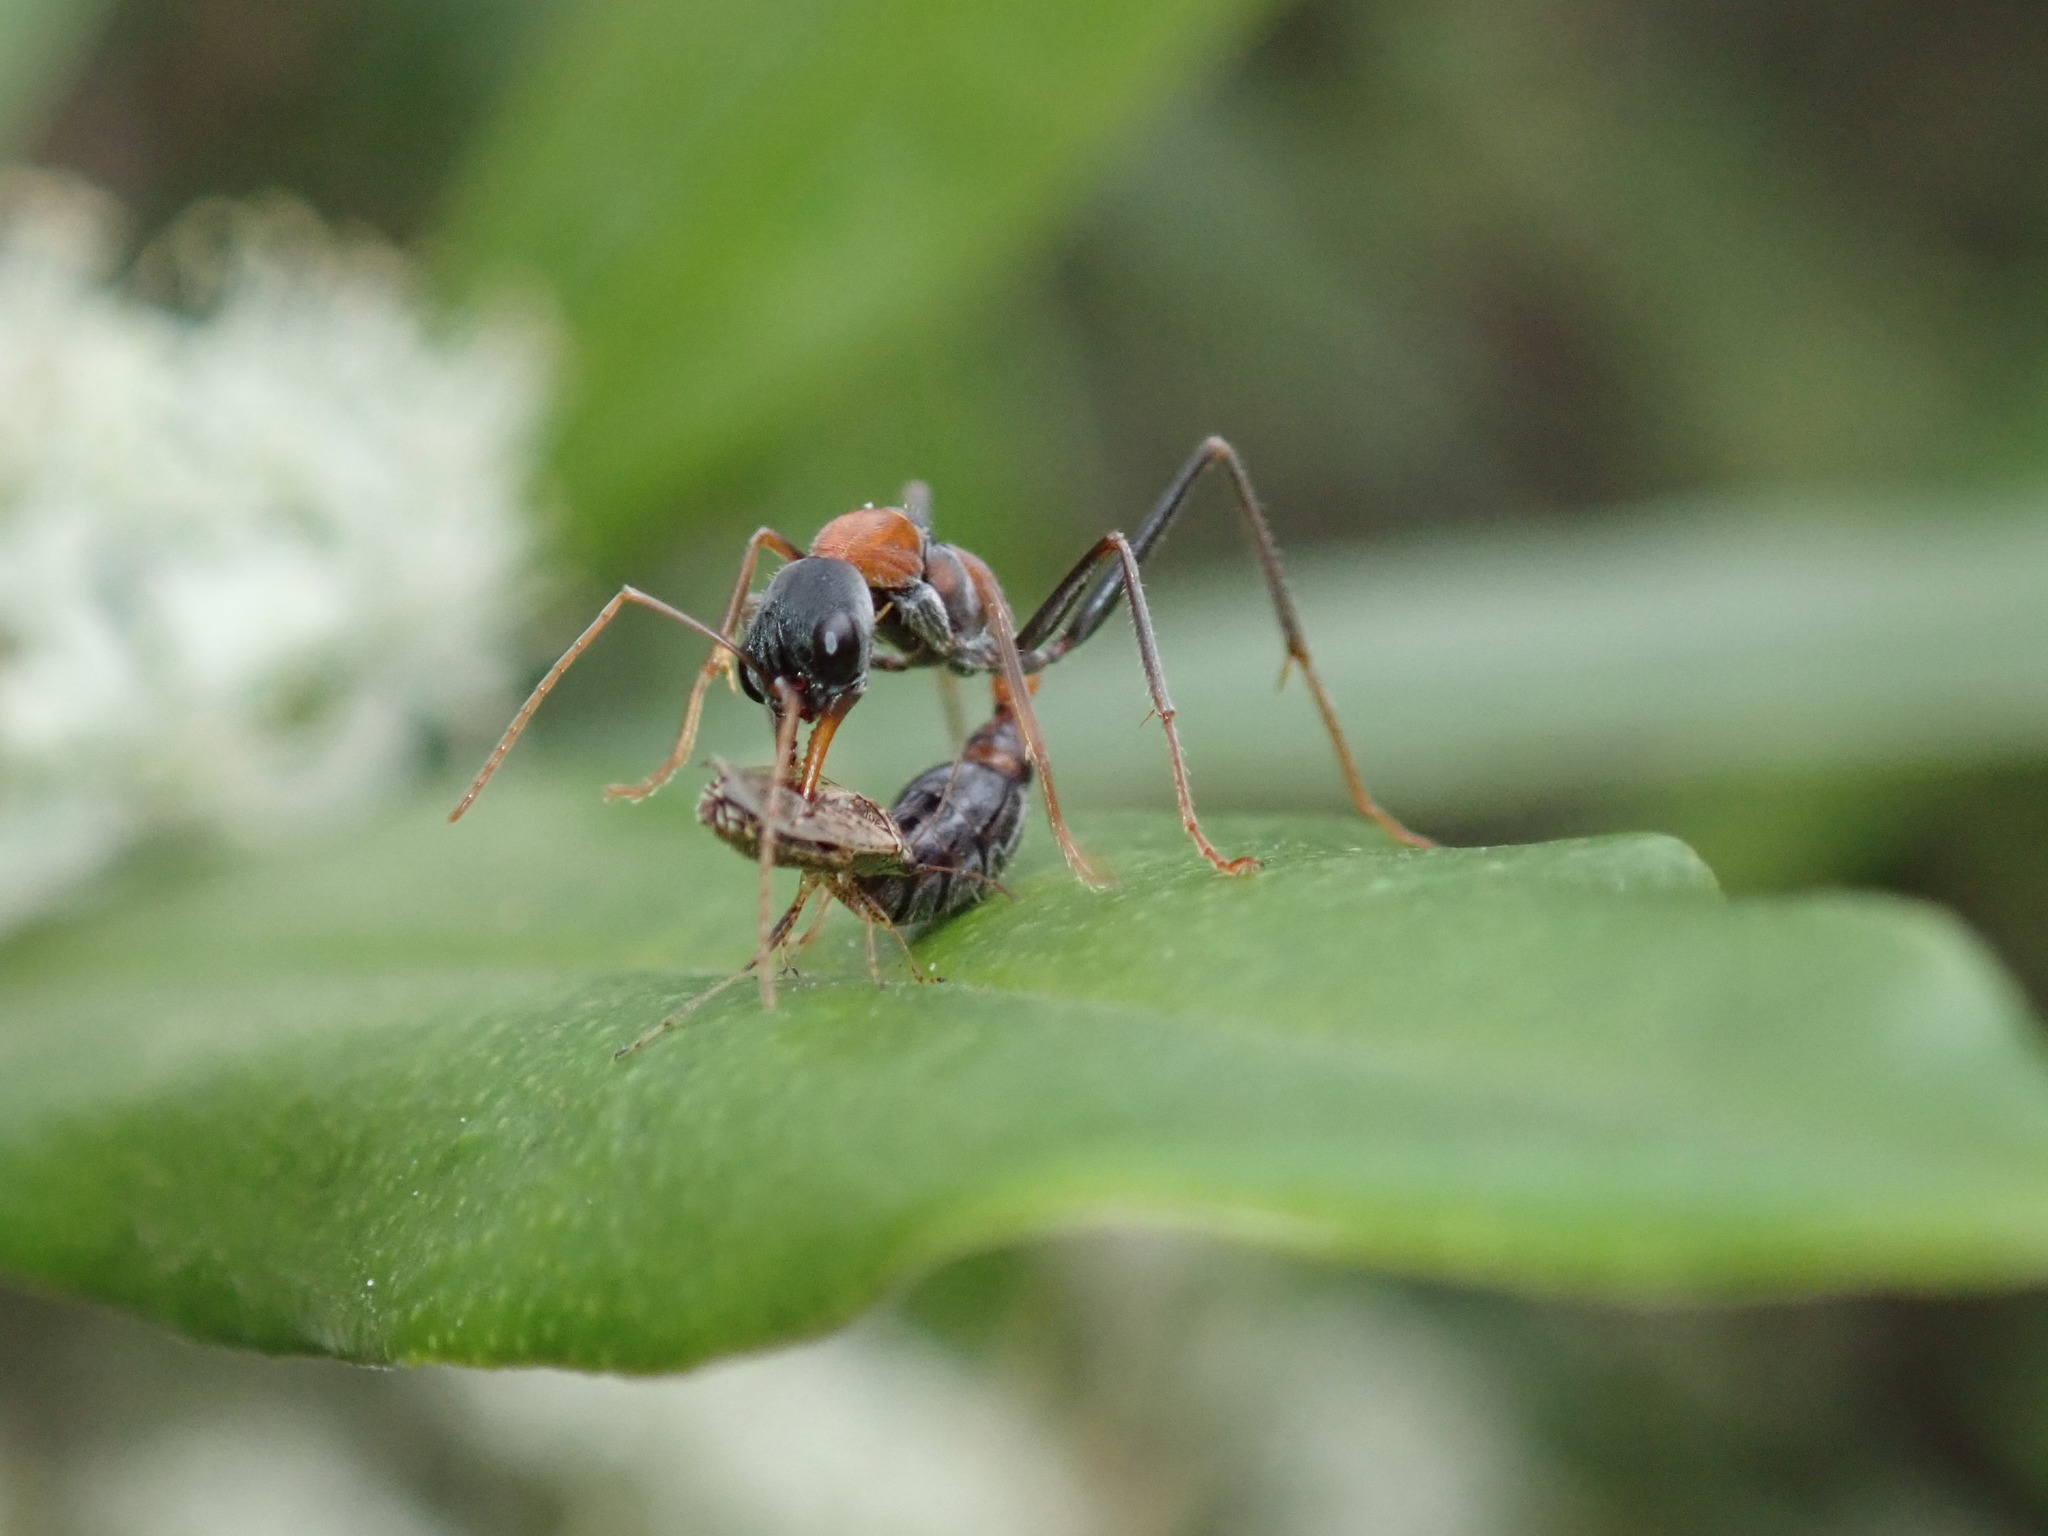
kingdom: Animalia
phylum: Arthropoda
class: Insecta
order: Hymenoptera
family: Formicidae
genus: Myrmecia
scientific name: Myrmecia nigrocincta
